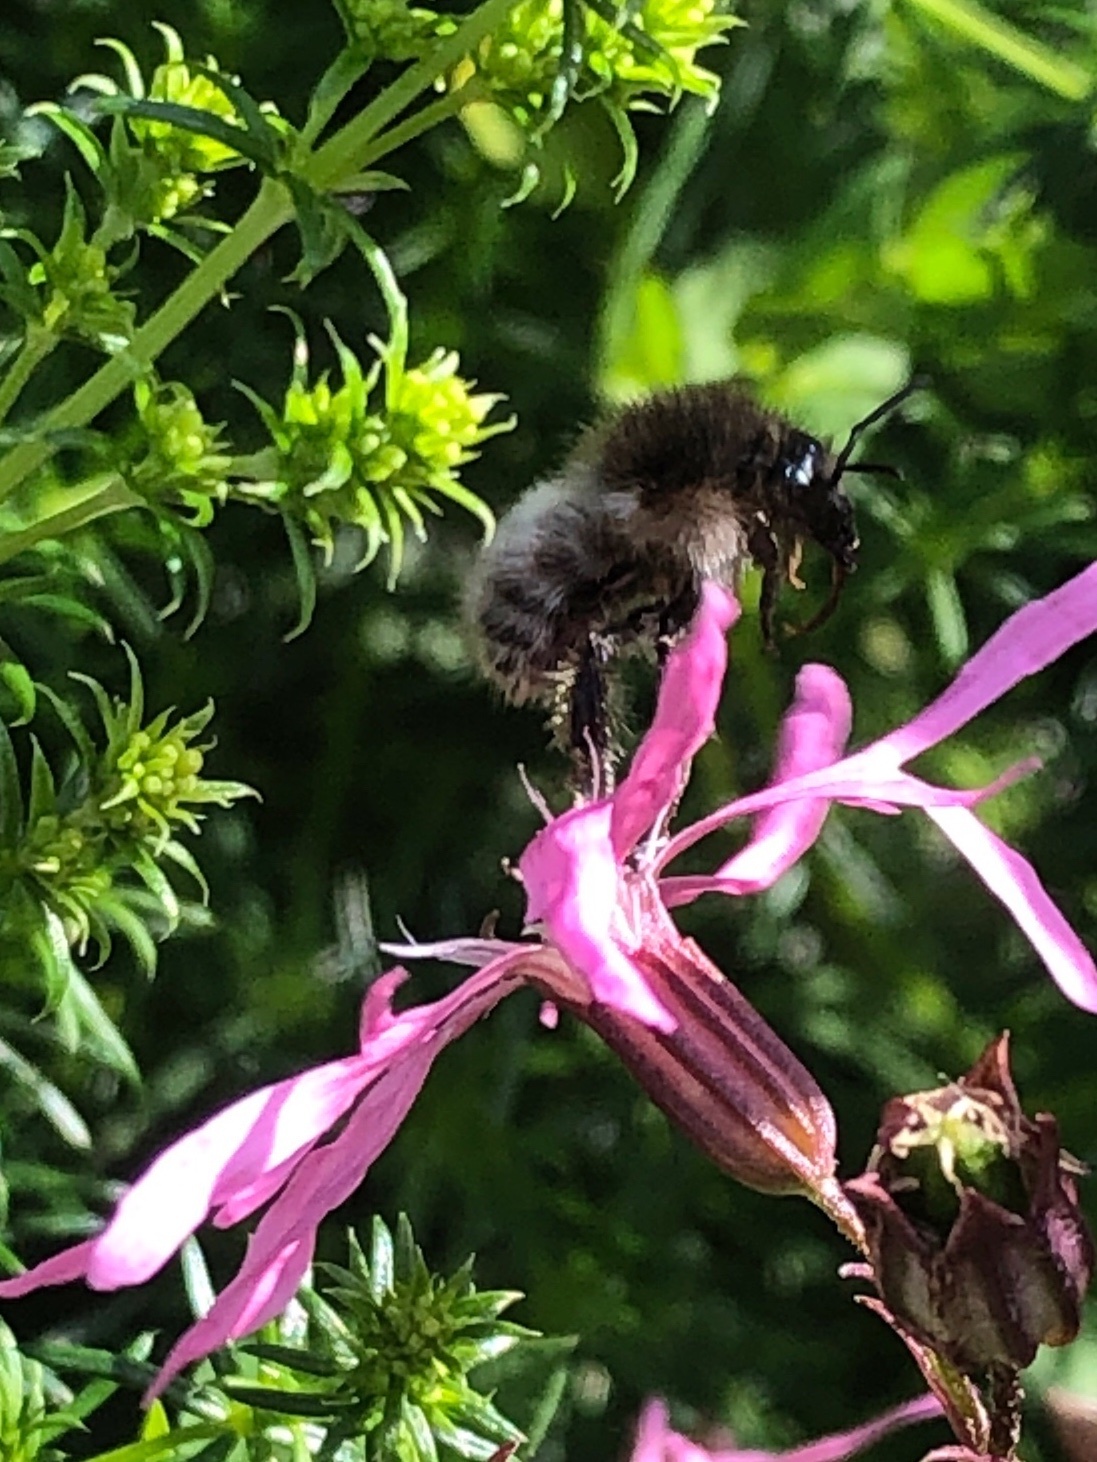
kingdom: Animalia
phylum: Arthropoda
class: Insecta
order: Hymenoptera
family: Apidae
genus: Bombus
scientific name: Bombus pascuorum
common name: Common carder bee
